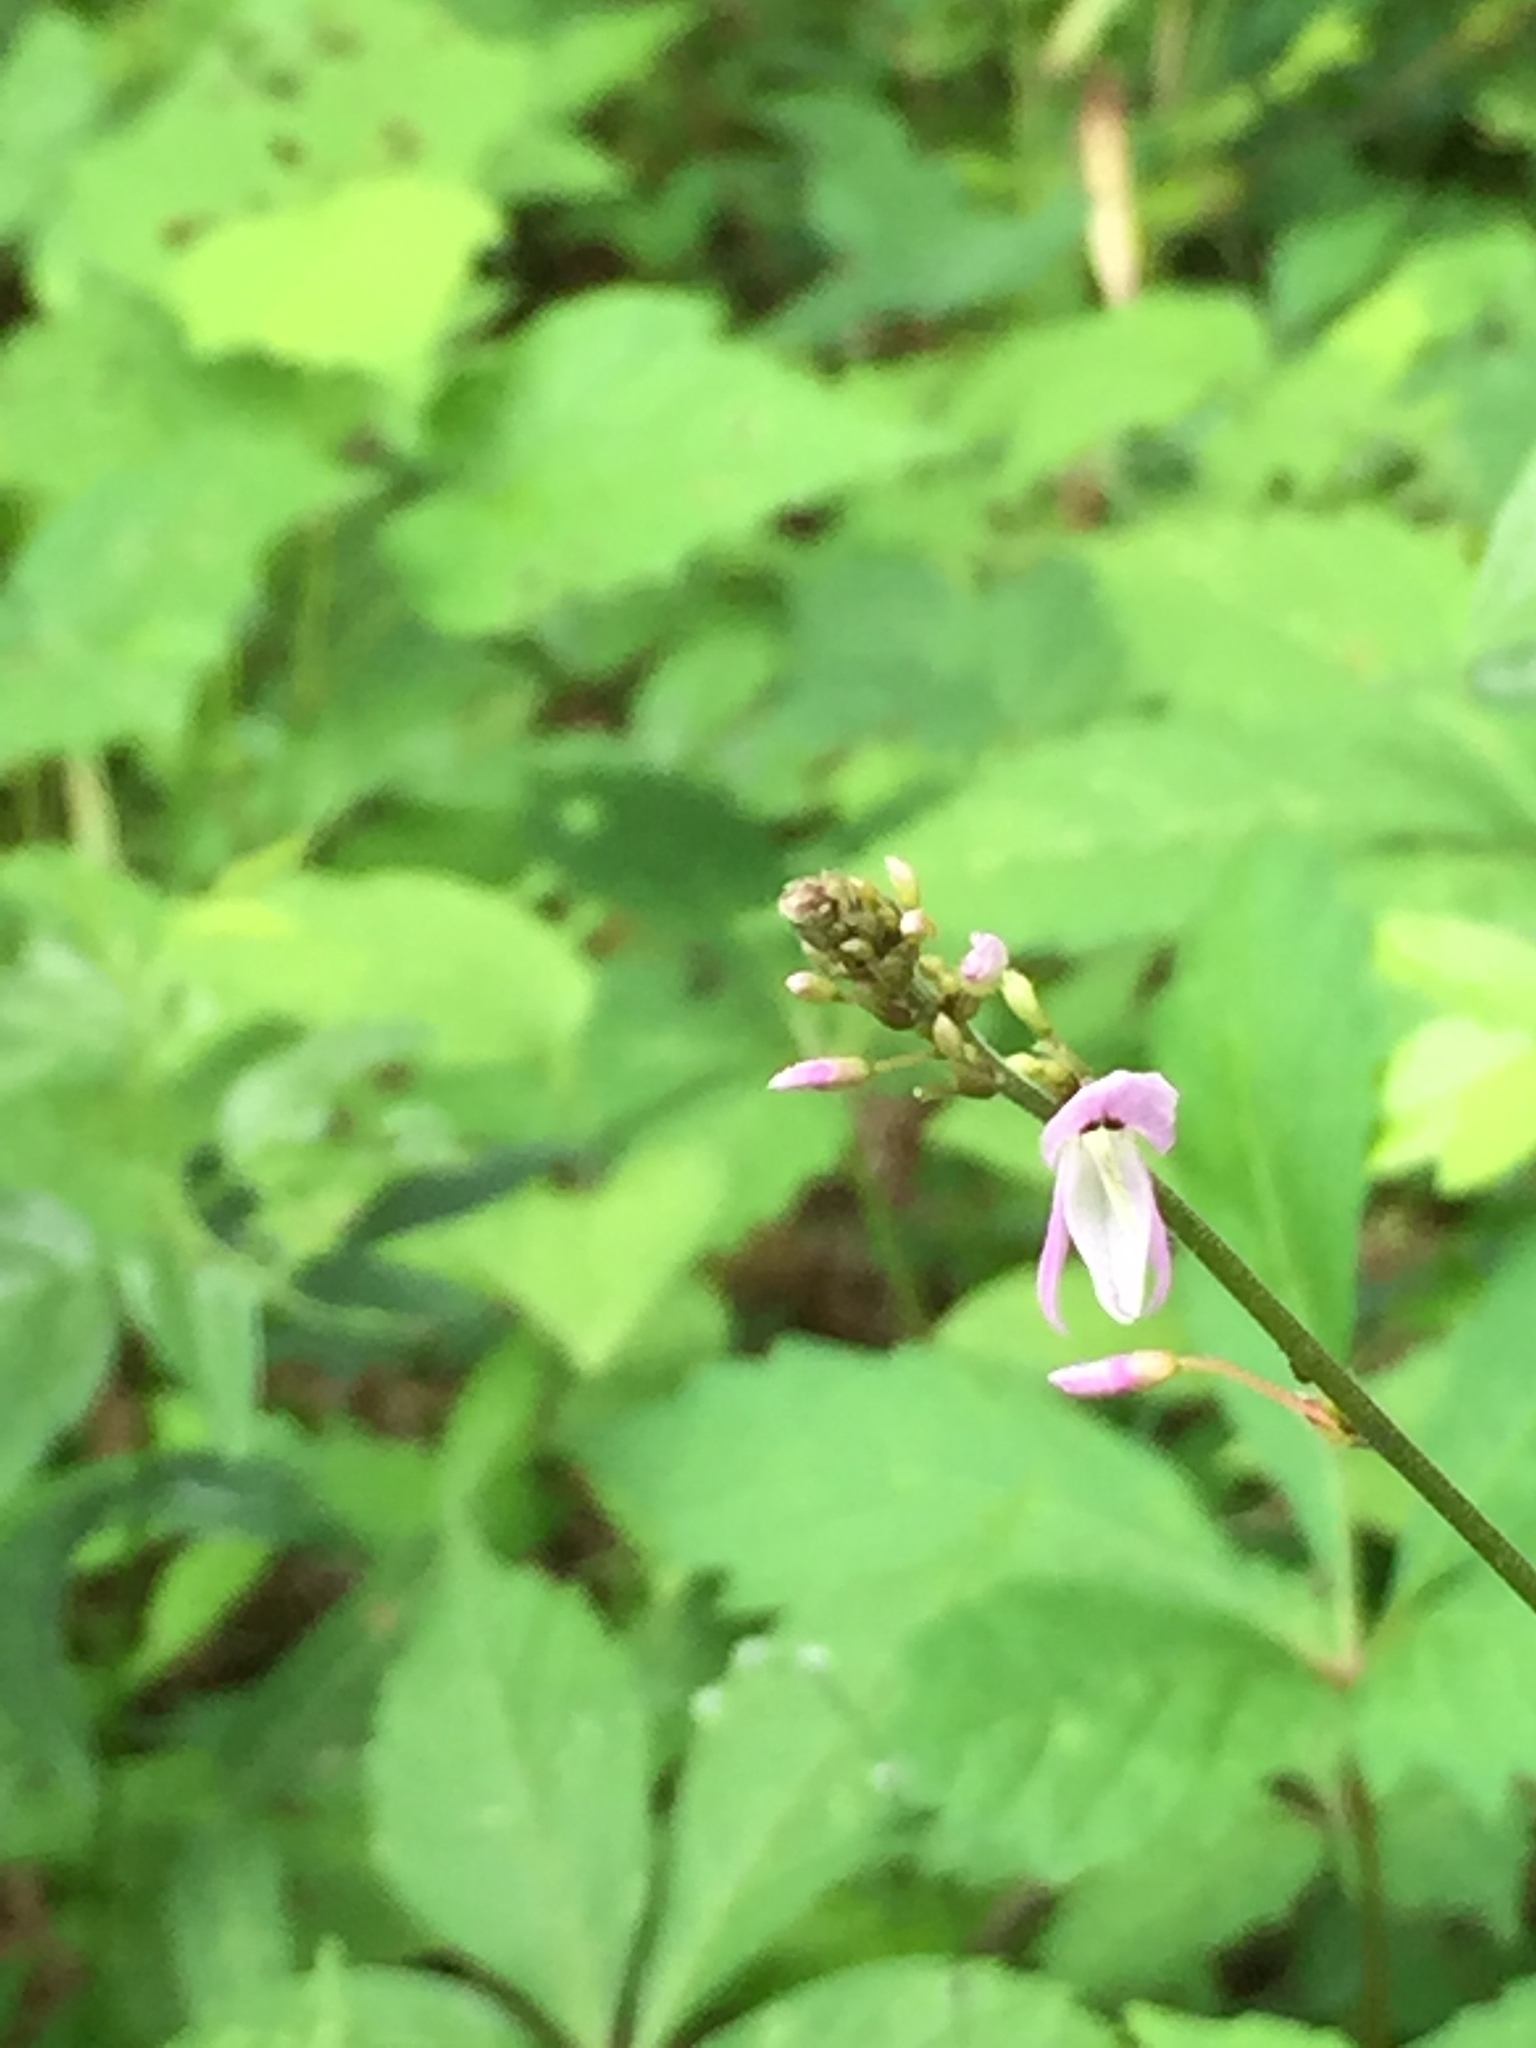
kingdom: Plantae
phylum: Tracheophyta
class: Magnoliopsida
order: Fabales
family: Fabaceae
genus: Hylodesmum
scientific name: Hylodesmum nudiflorum
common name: Bare-stemmed tick-trefoil
